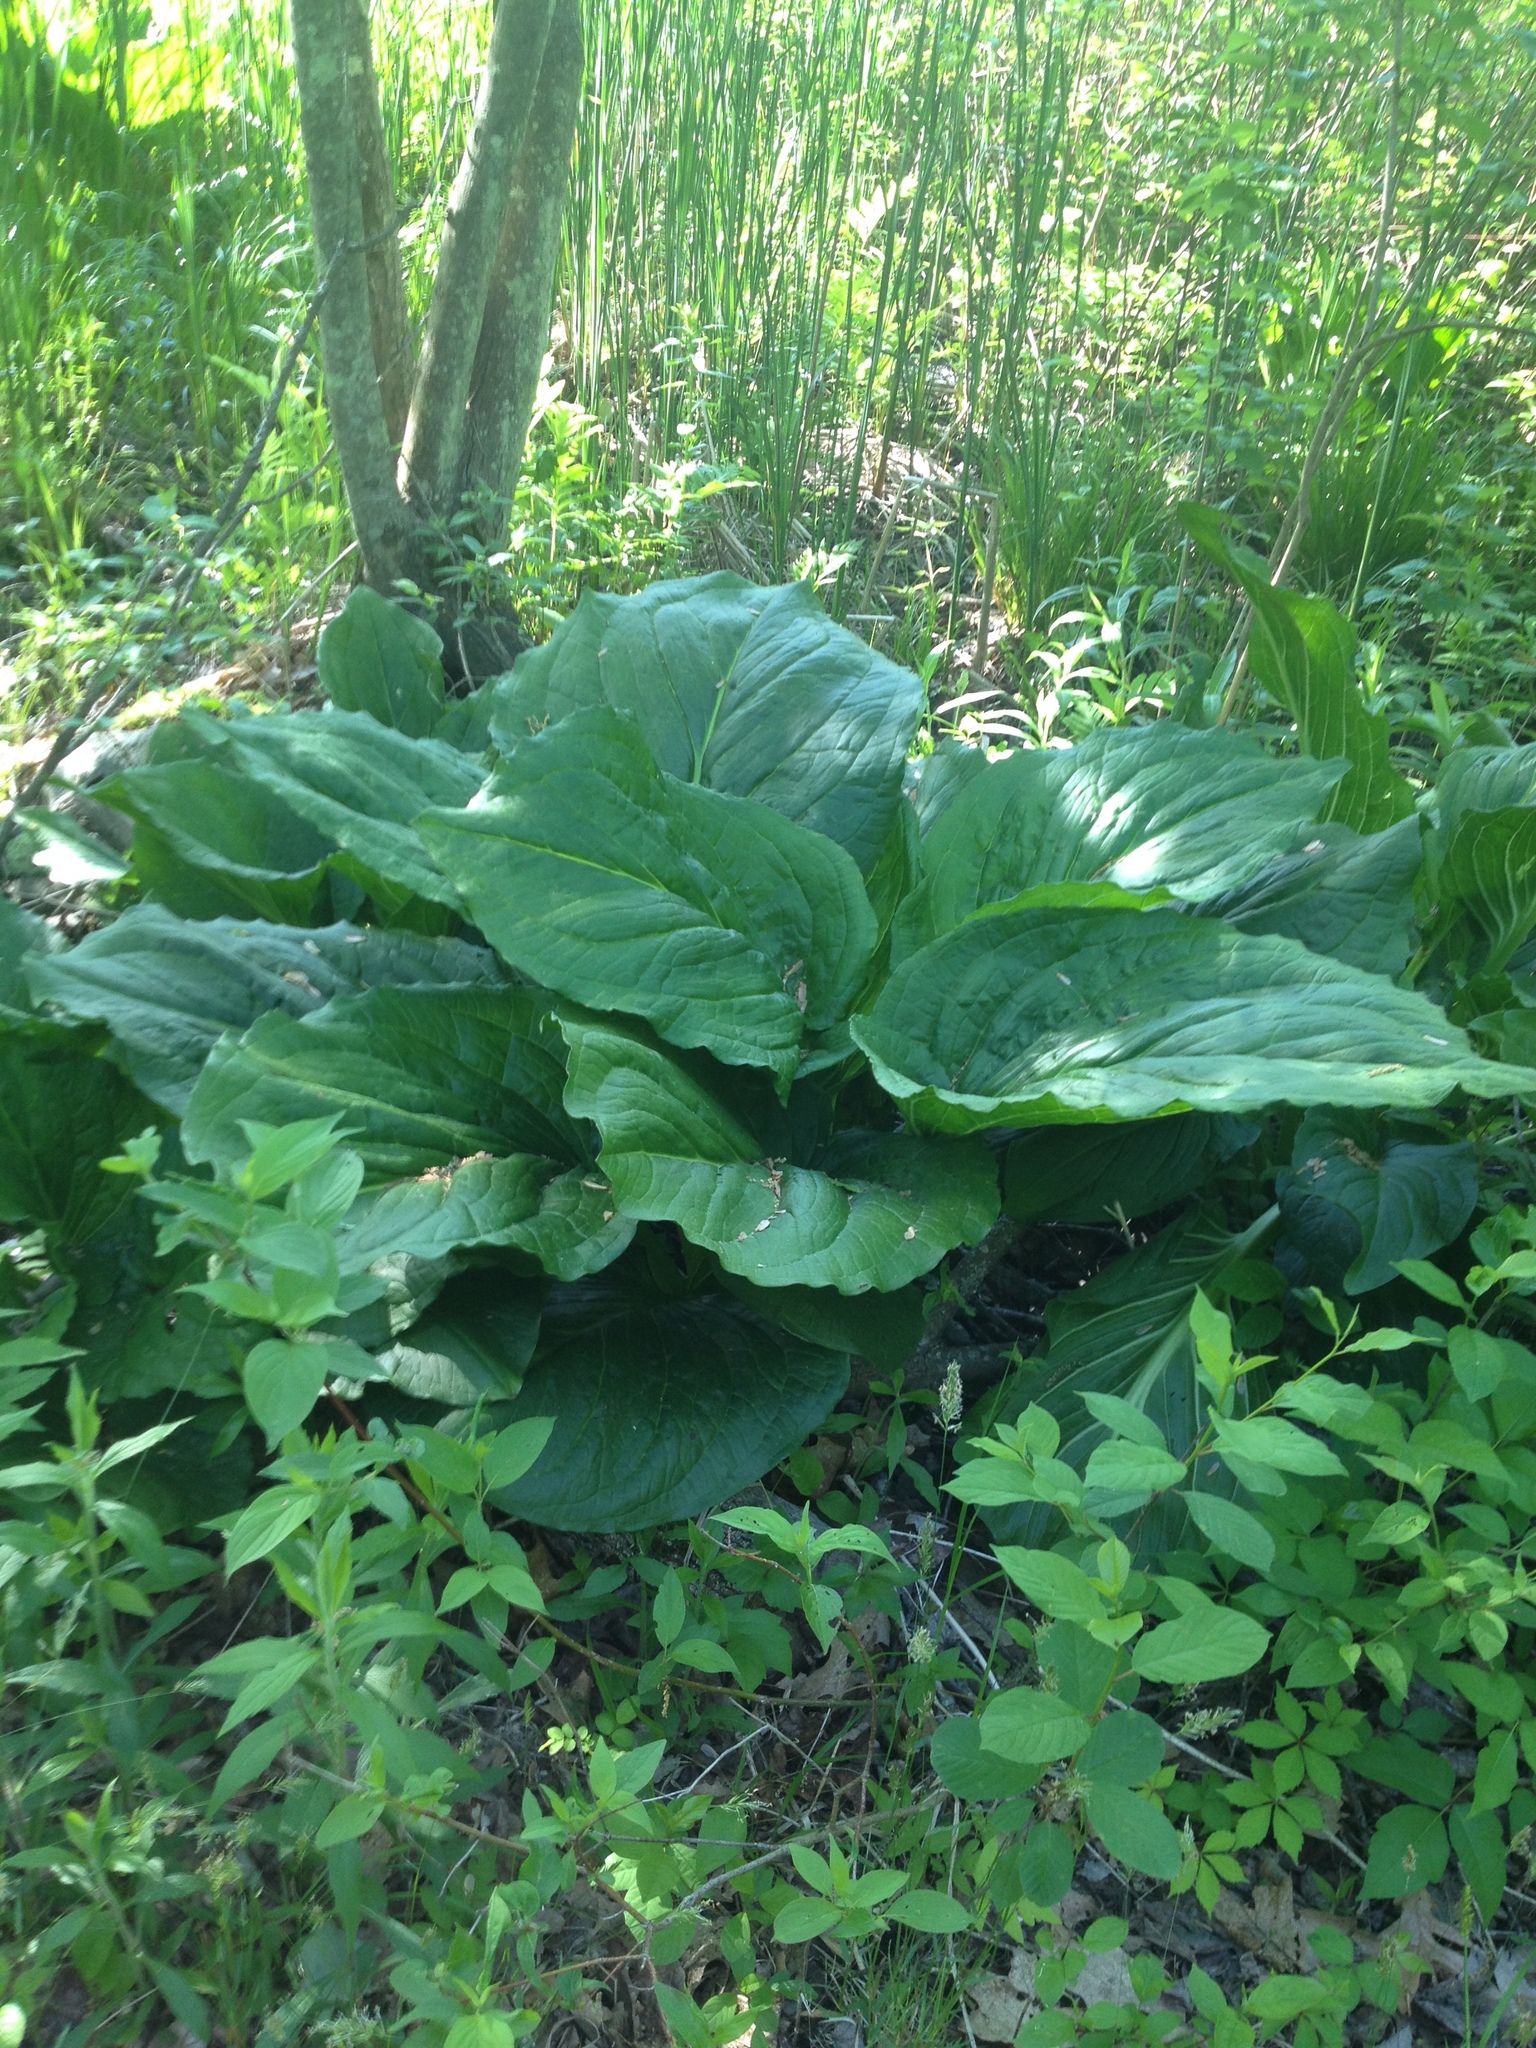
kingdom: Plantae
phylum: Tracheophyta
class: Liliopsida
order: Alismatales
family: Araceae
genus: Symplocarpus
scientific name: Symplocarpus foetidus
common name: Eastern skunk cabbage
